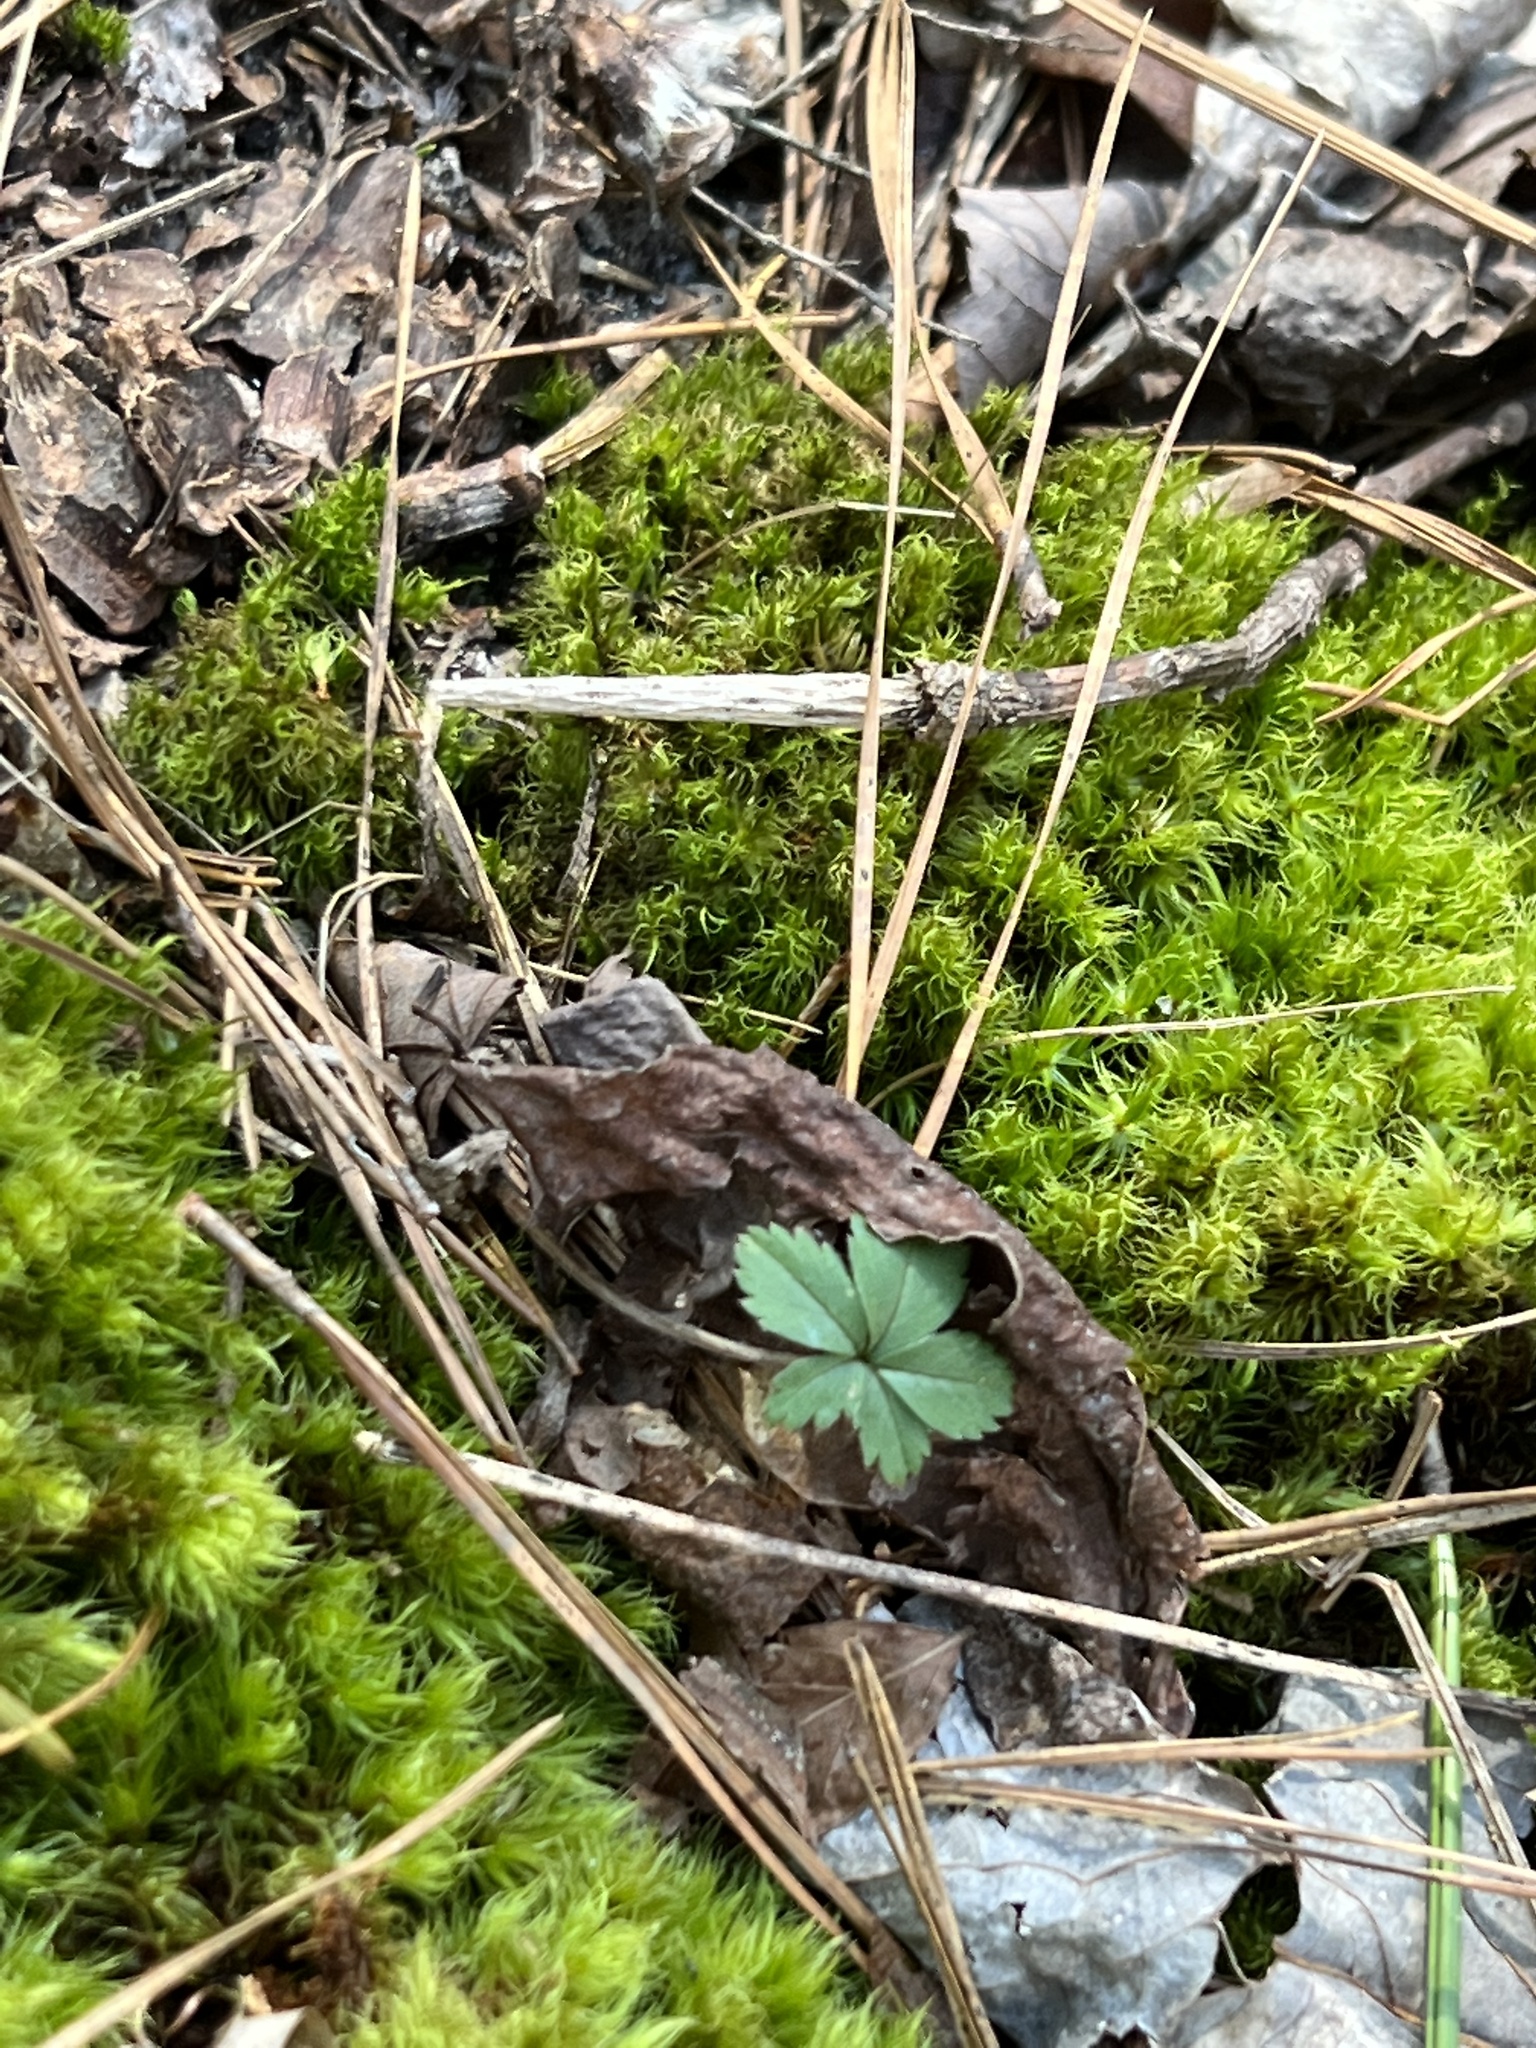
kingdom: Plantae
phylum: Tracheophyta
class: Magnoliopsida
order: Rosales
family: Rosaceae
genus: Potentilla
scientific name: Potentilla simplex
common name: Old field cinquefoil
